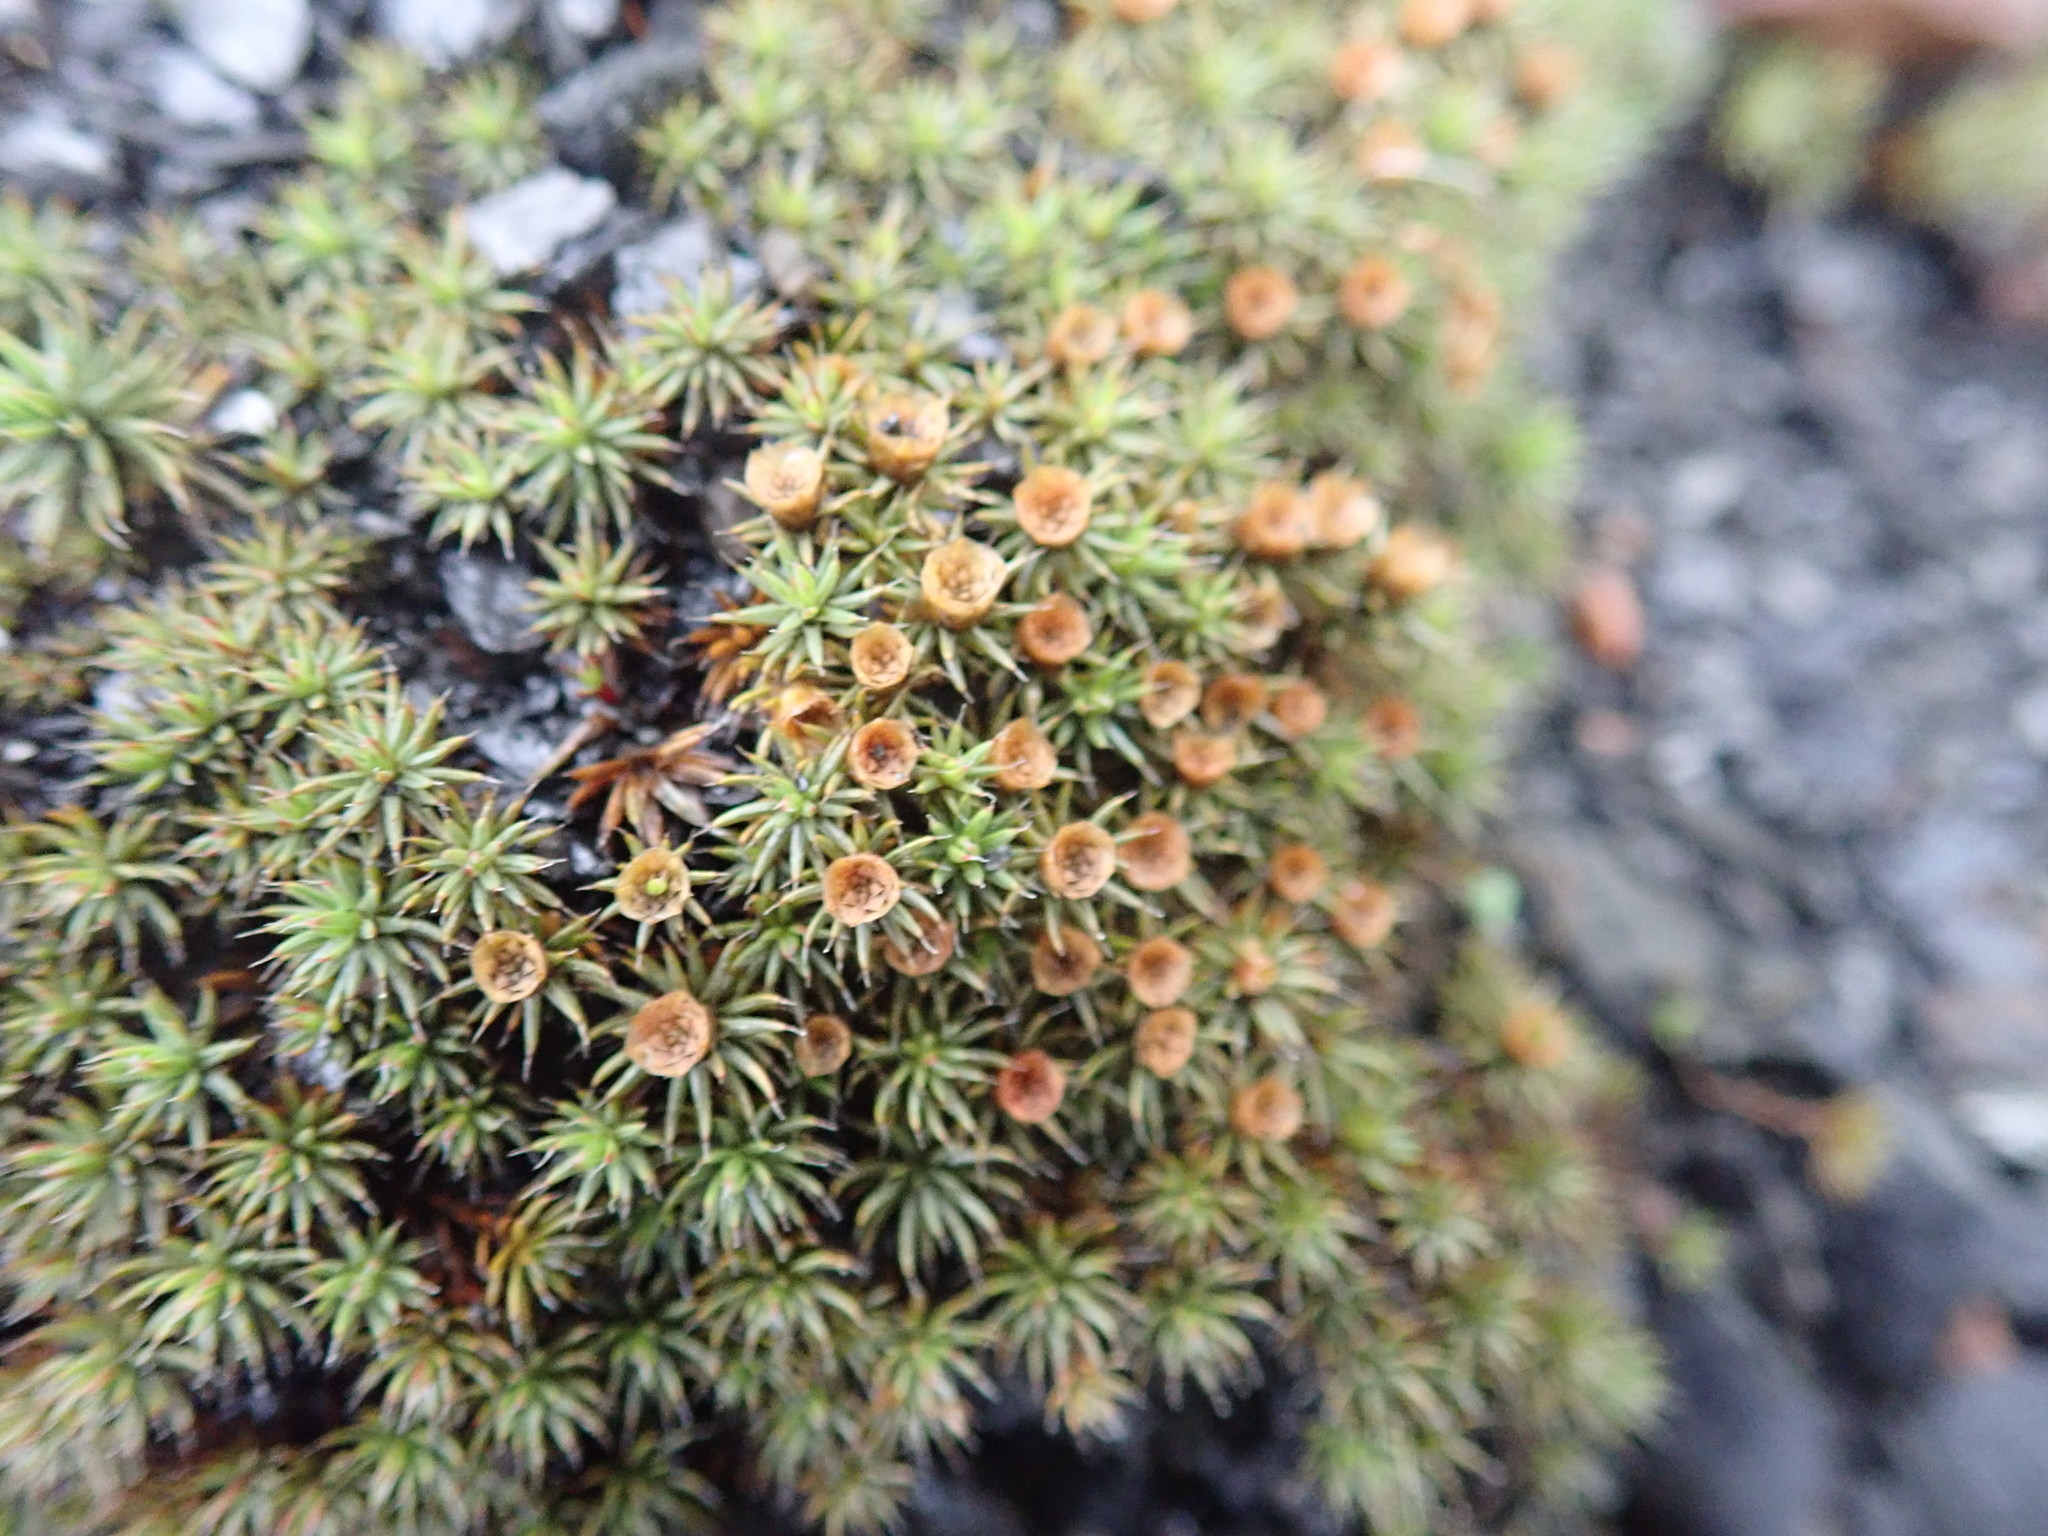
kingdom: Plantae
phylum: Bryophyta
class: Polytrichopsida
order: Polytrichales
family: Polytrichaceae
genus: Polytrichum
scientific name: Polytrichum piliferum
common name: Bristly haircap
